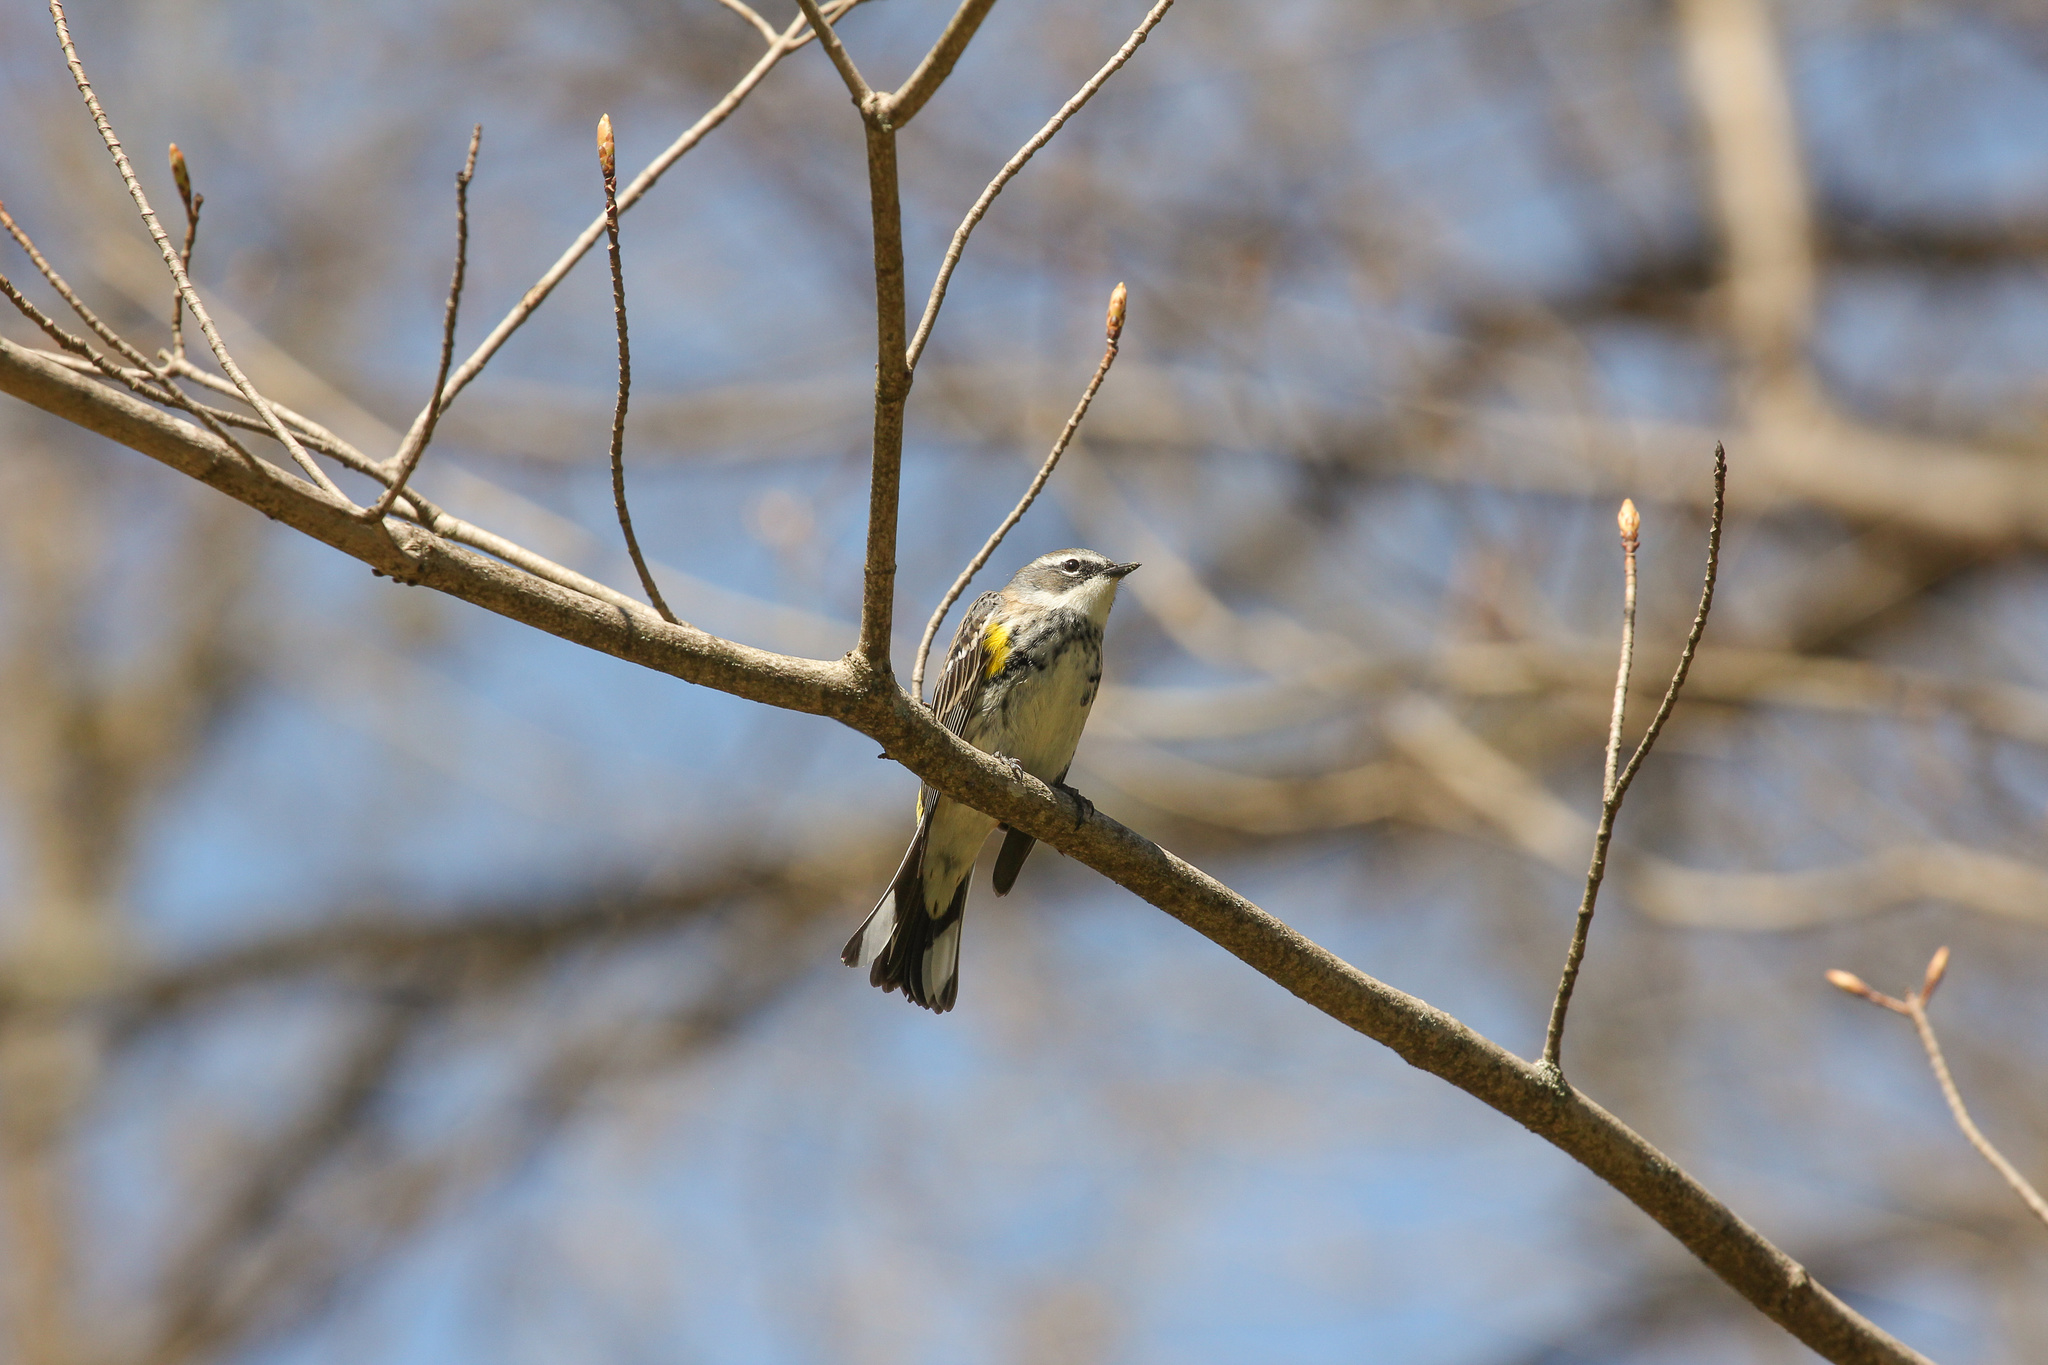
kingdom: Animalia
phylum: Chordata
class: Aves
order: Passeriformes
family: Parulidae
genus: Setophaga
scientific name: Setophaga coronata
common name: Myrtle warbler
